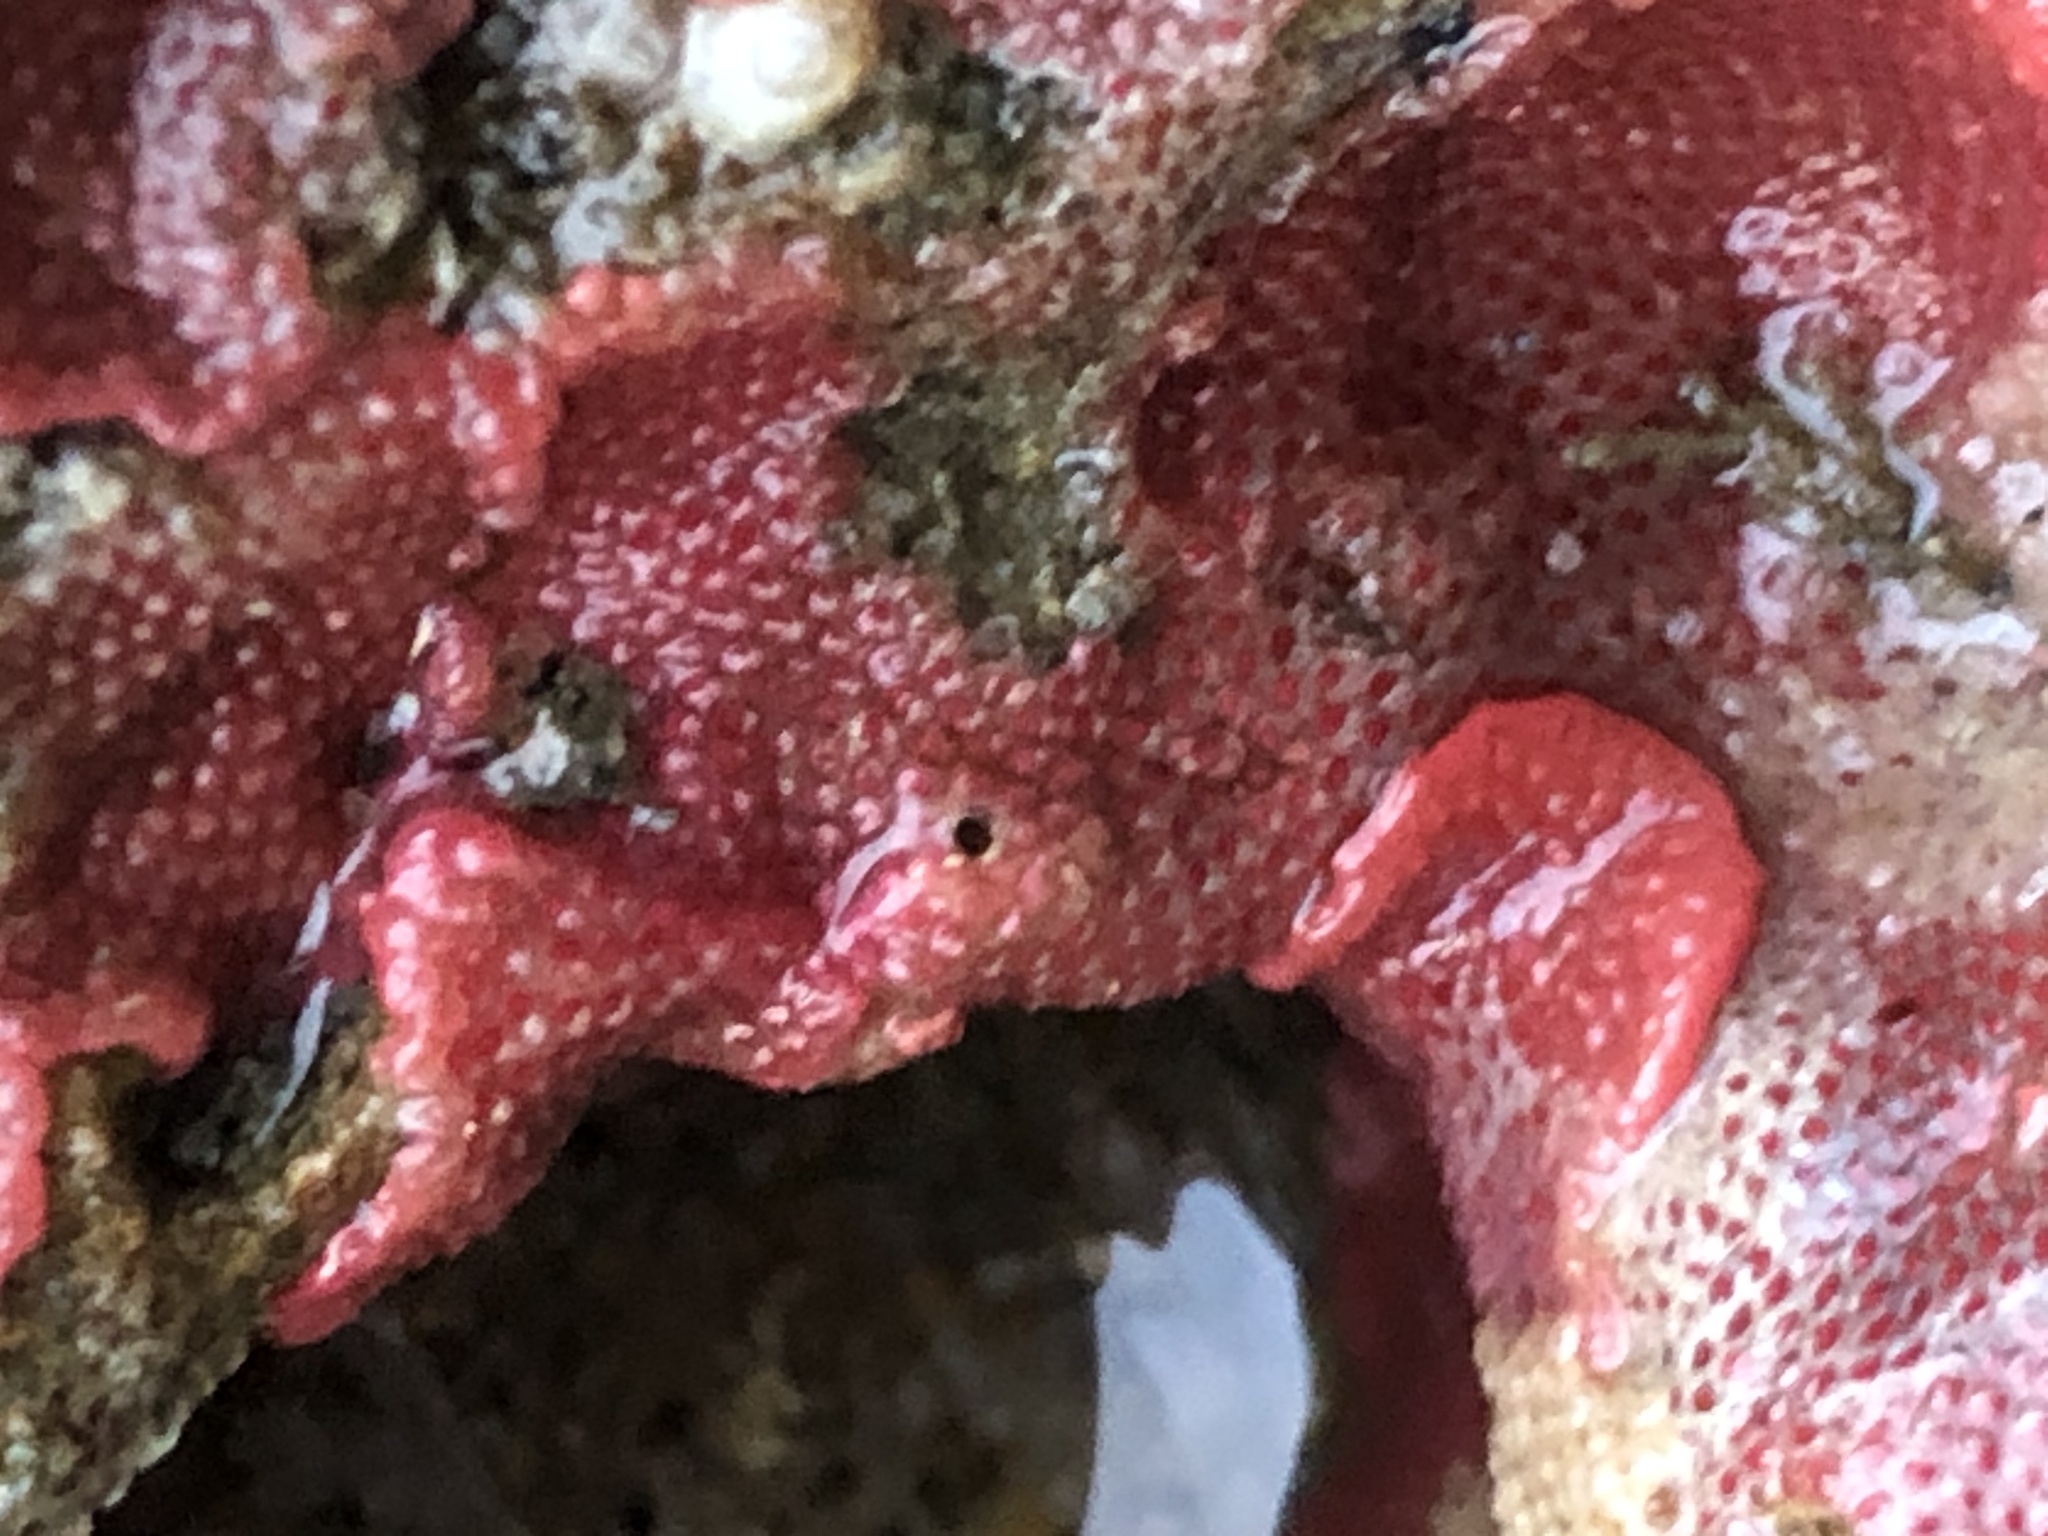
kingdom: Animalia
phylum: Bryozoa
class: Gymnolaemata
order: Cheilostomatida
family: Eurystomellidae
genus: Integripelta
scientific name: Integripelta bilabiata
